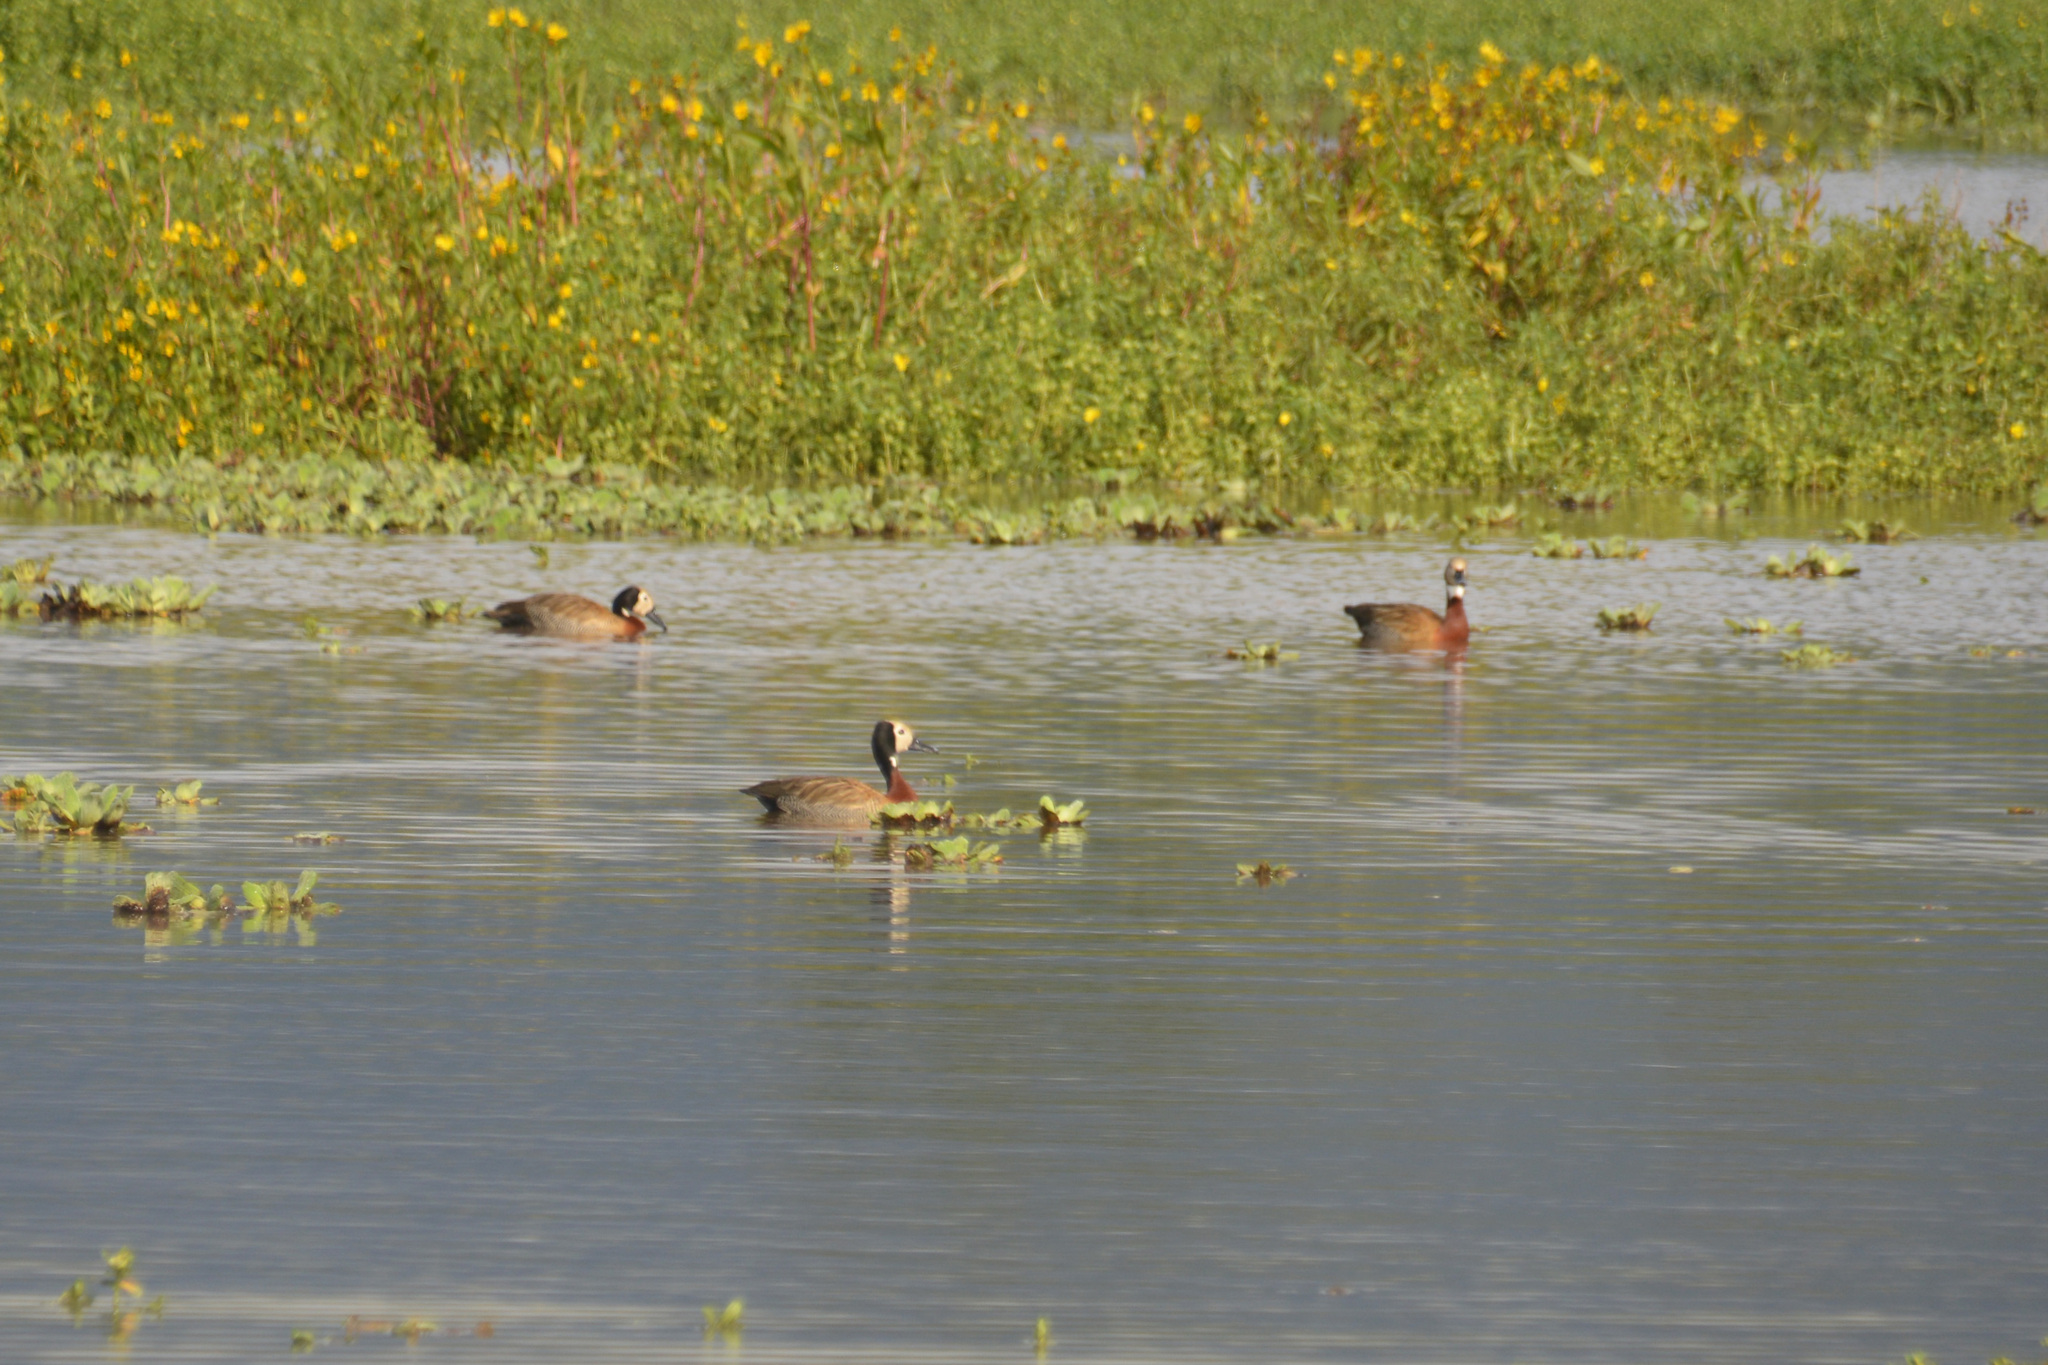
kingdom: Animalia
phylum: Chordata
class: Aves
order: Anseriformes
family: Anatidae
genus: Dendrocygna
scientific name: Dendrocygna viduata
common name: White-faced whistling duck
